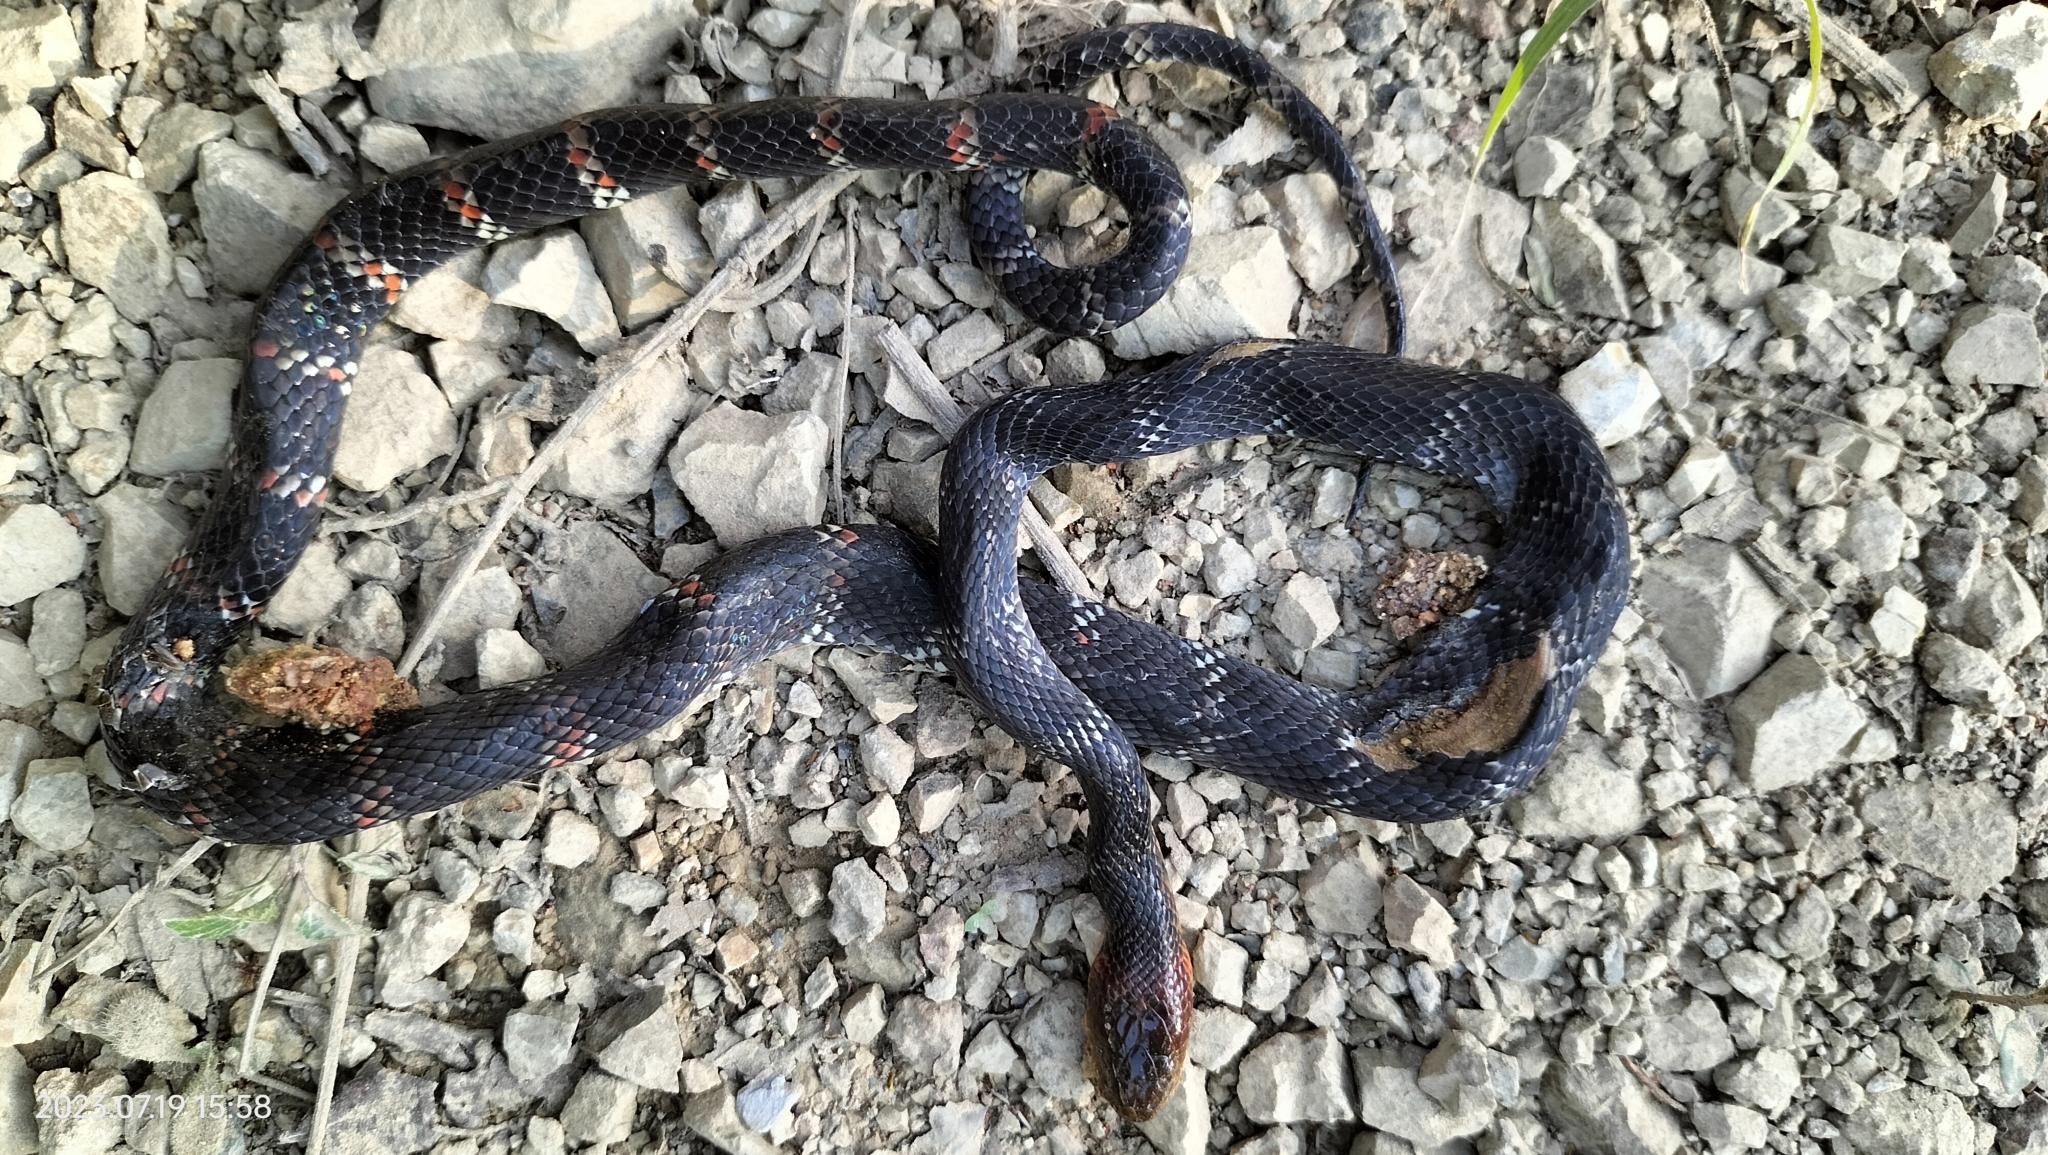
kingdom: Animalia
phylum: Chordata
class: Squamata
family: Colubridae
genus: Oxyrhopus
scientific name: Oxyrhopus erdisii
